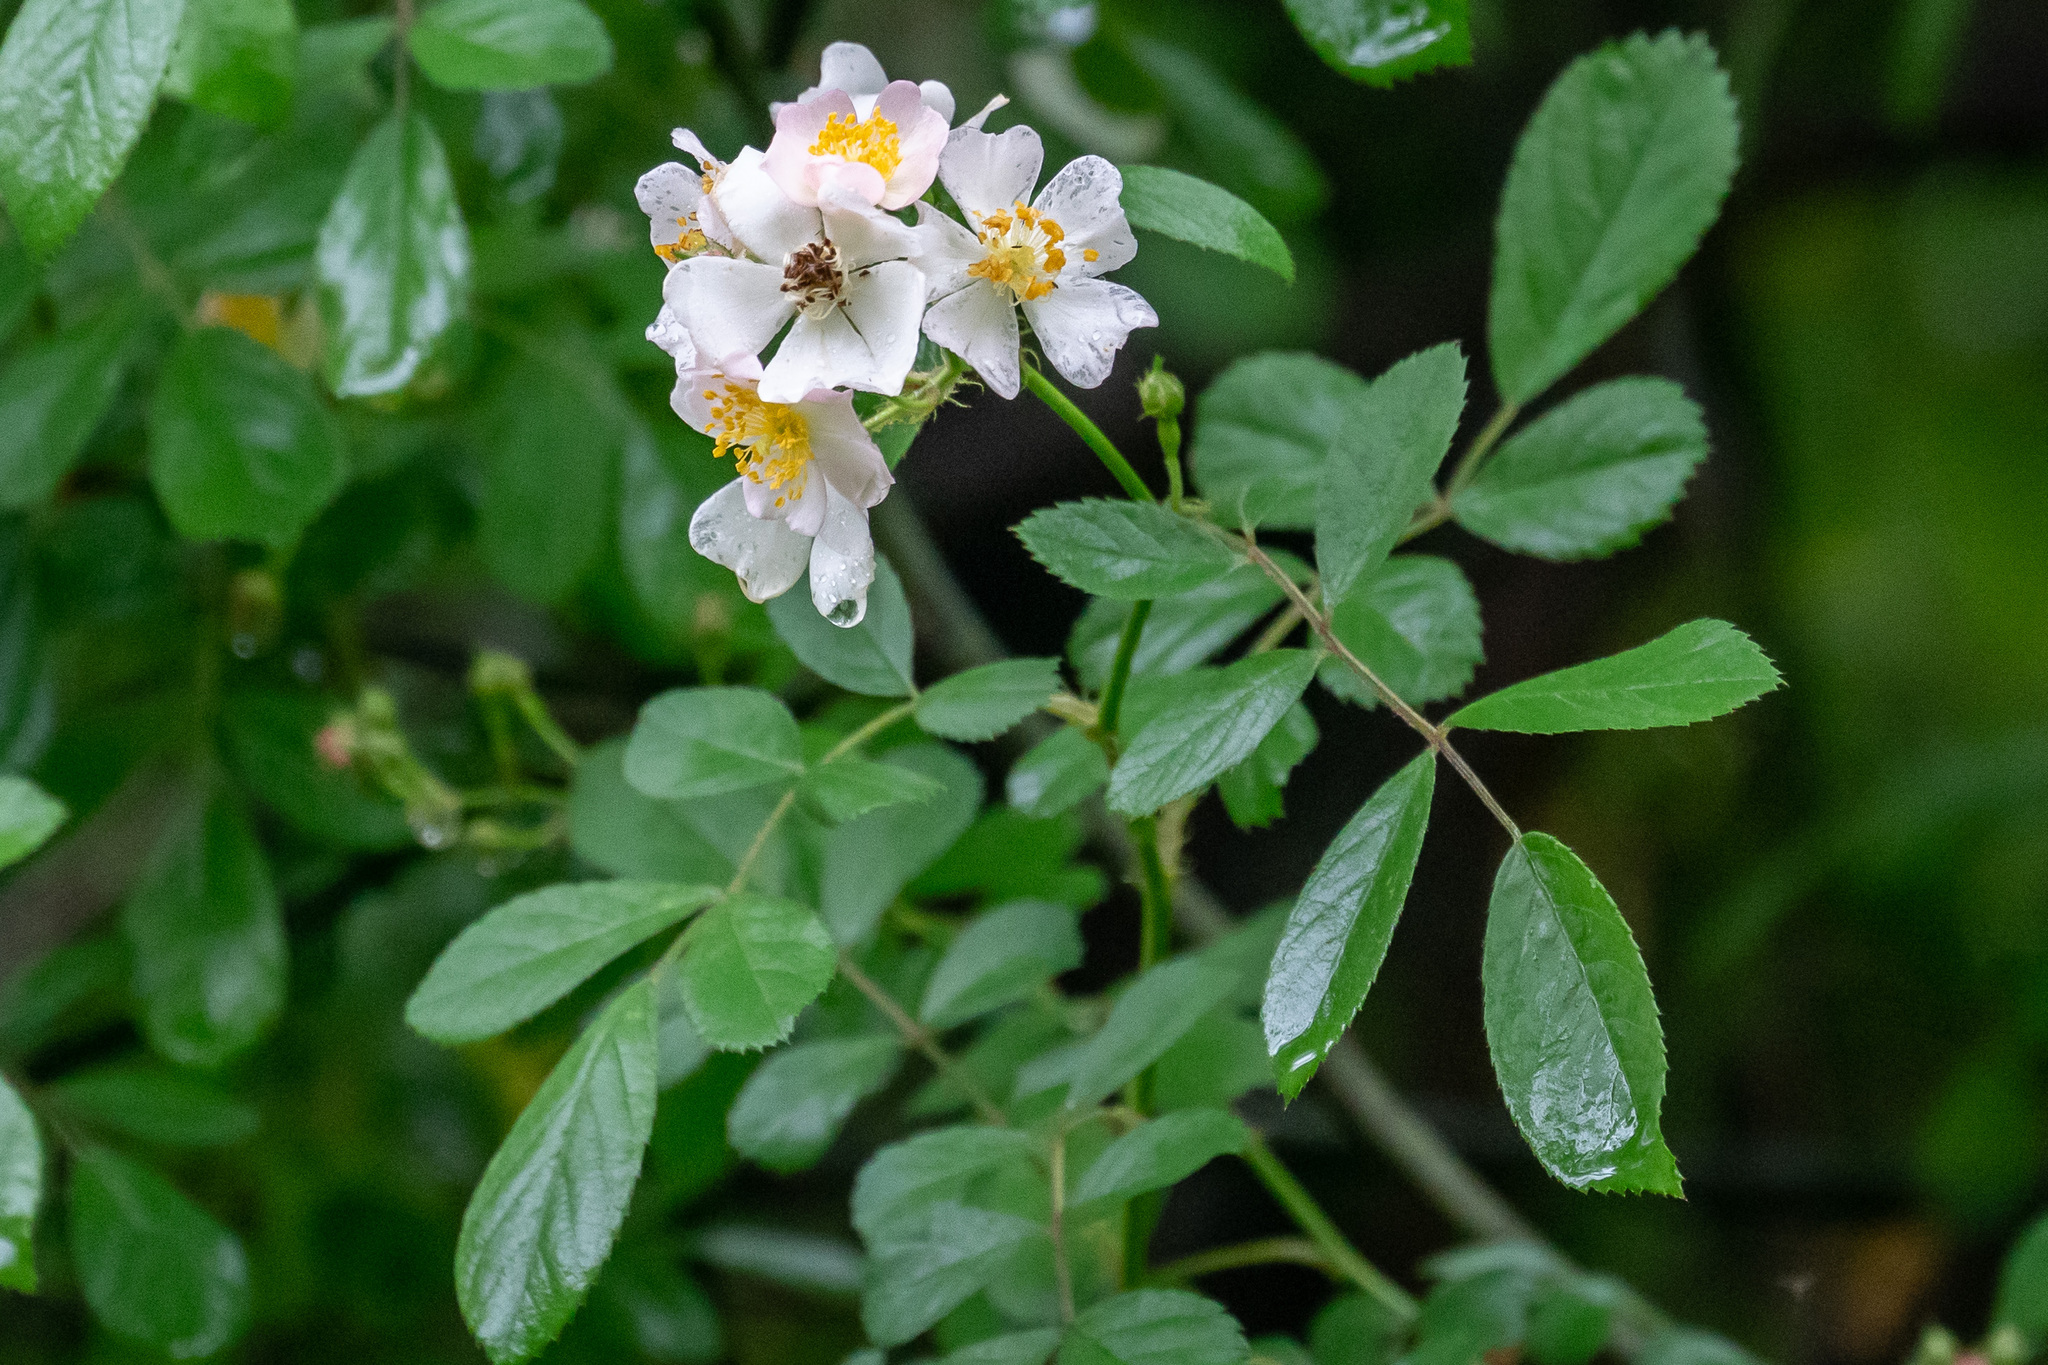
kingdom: Plantae
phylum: Tracheophyta
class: Magnoliopsida
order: Rosales
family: Rosaceae
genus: Rosa
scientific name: Rosa multiflora
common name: Multiflora rose
